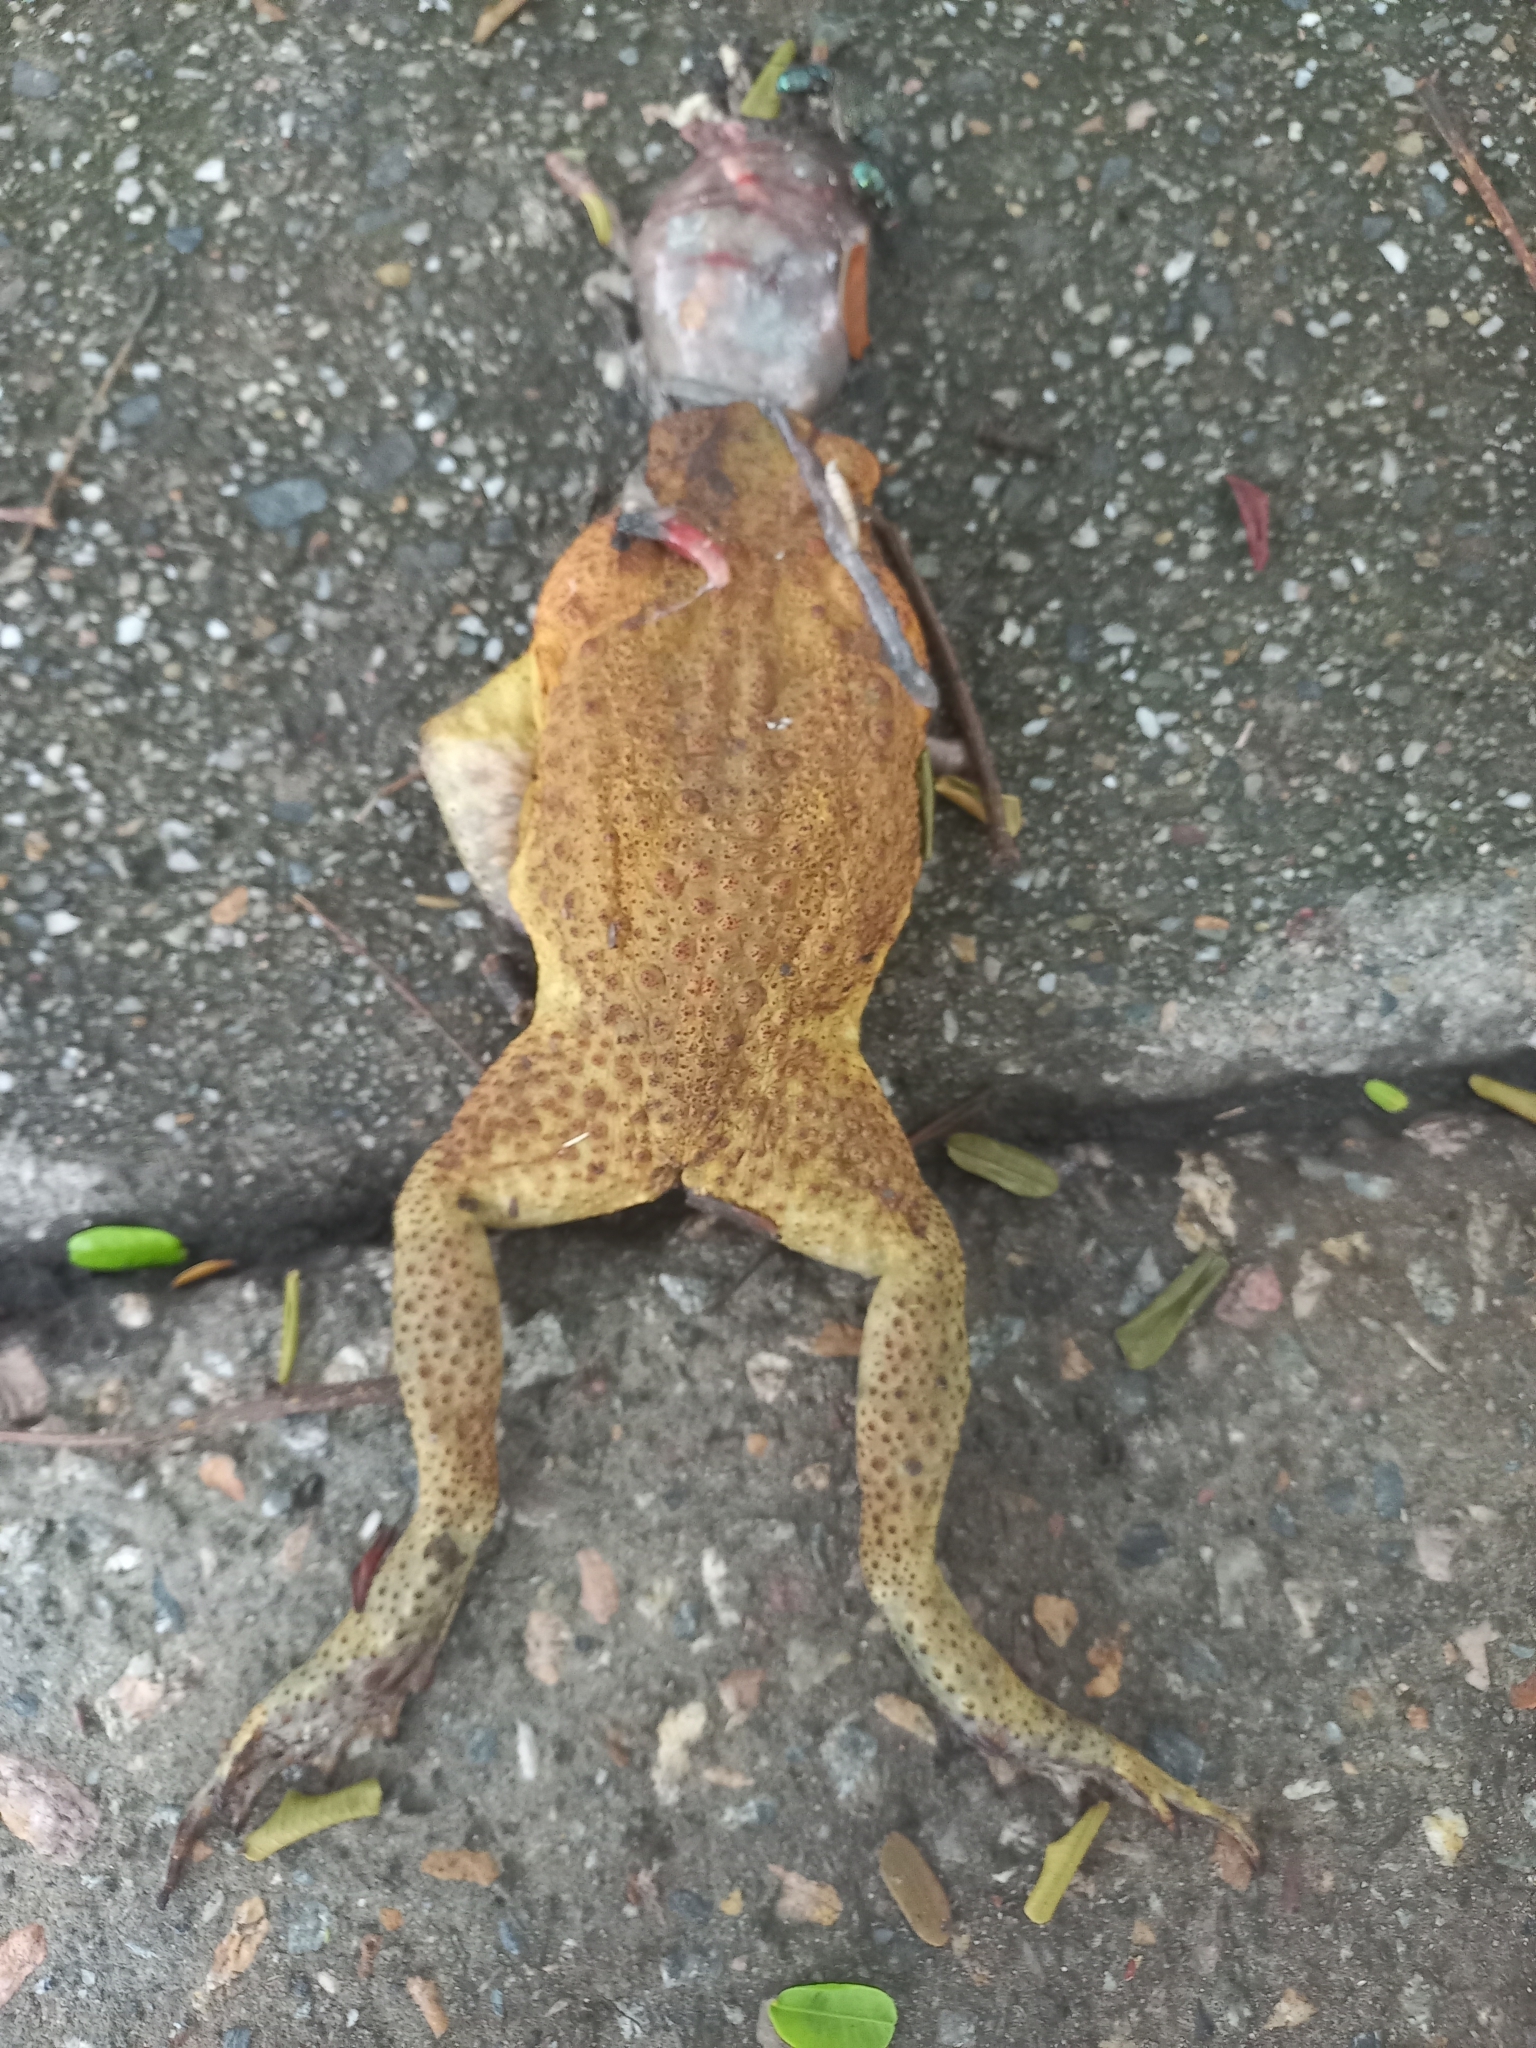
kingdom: Animalia
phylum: Chordata
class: Amphibia
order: Anura
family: Bufonidae
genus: Rhinella
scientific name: Rhinella marina
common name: Cane toad
